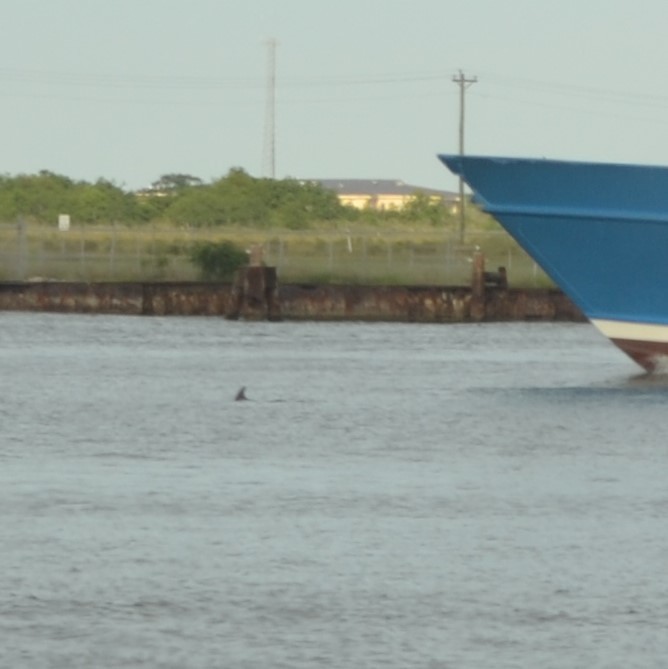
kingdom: Animalia
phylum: Chordata
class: Mammalia
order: Cetacea
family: Delphinidae
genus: Tursiops
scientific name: Tursiops truncatus
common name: Bottlenose dolphin
